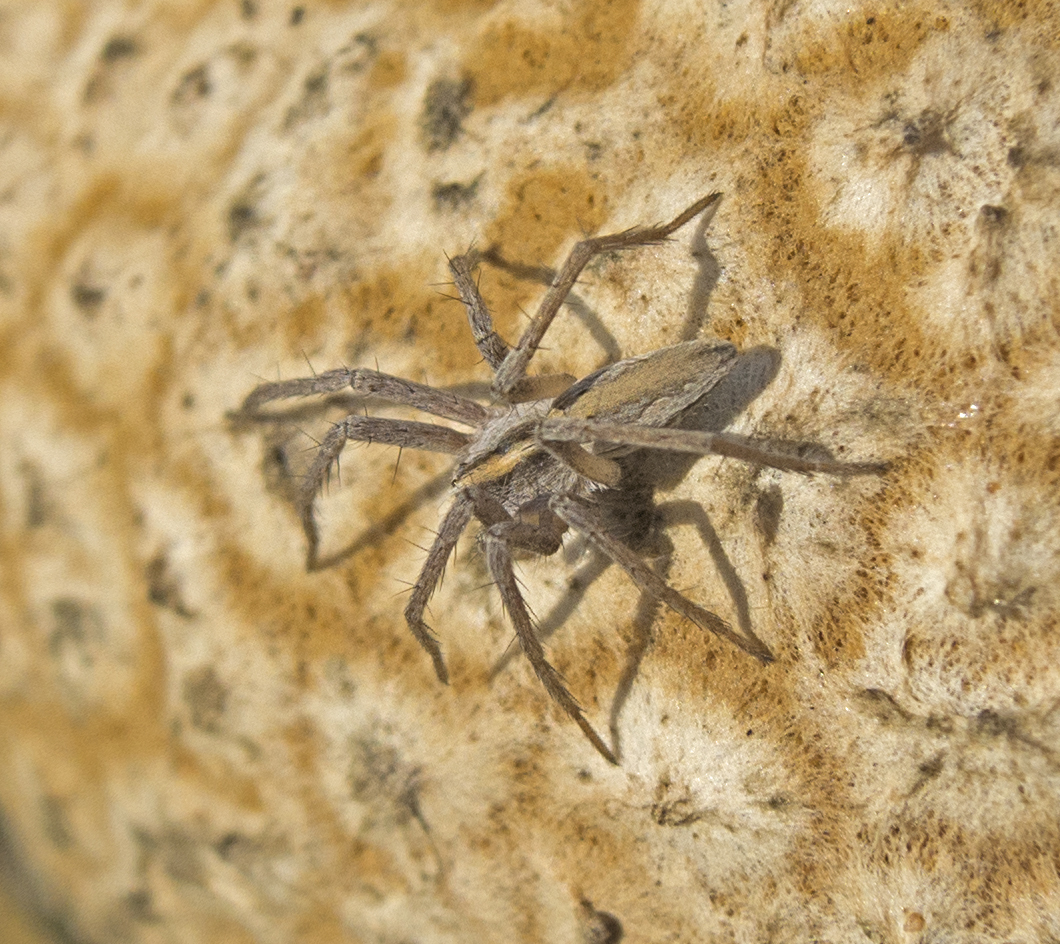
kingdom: Animalia
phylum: Arthropoda
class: Arachnida
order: Araneae
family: Pisauridae
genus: Pisaura
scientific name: Pisaura mirabilis
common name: Tent spider
